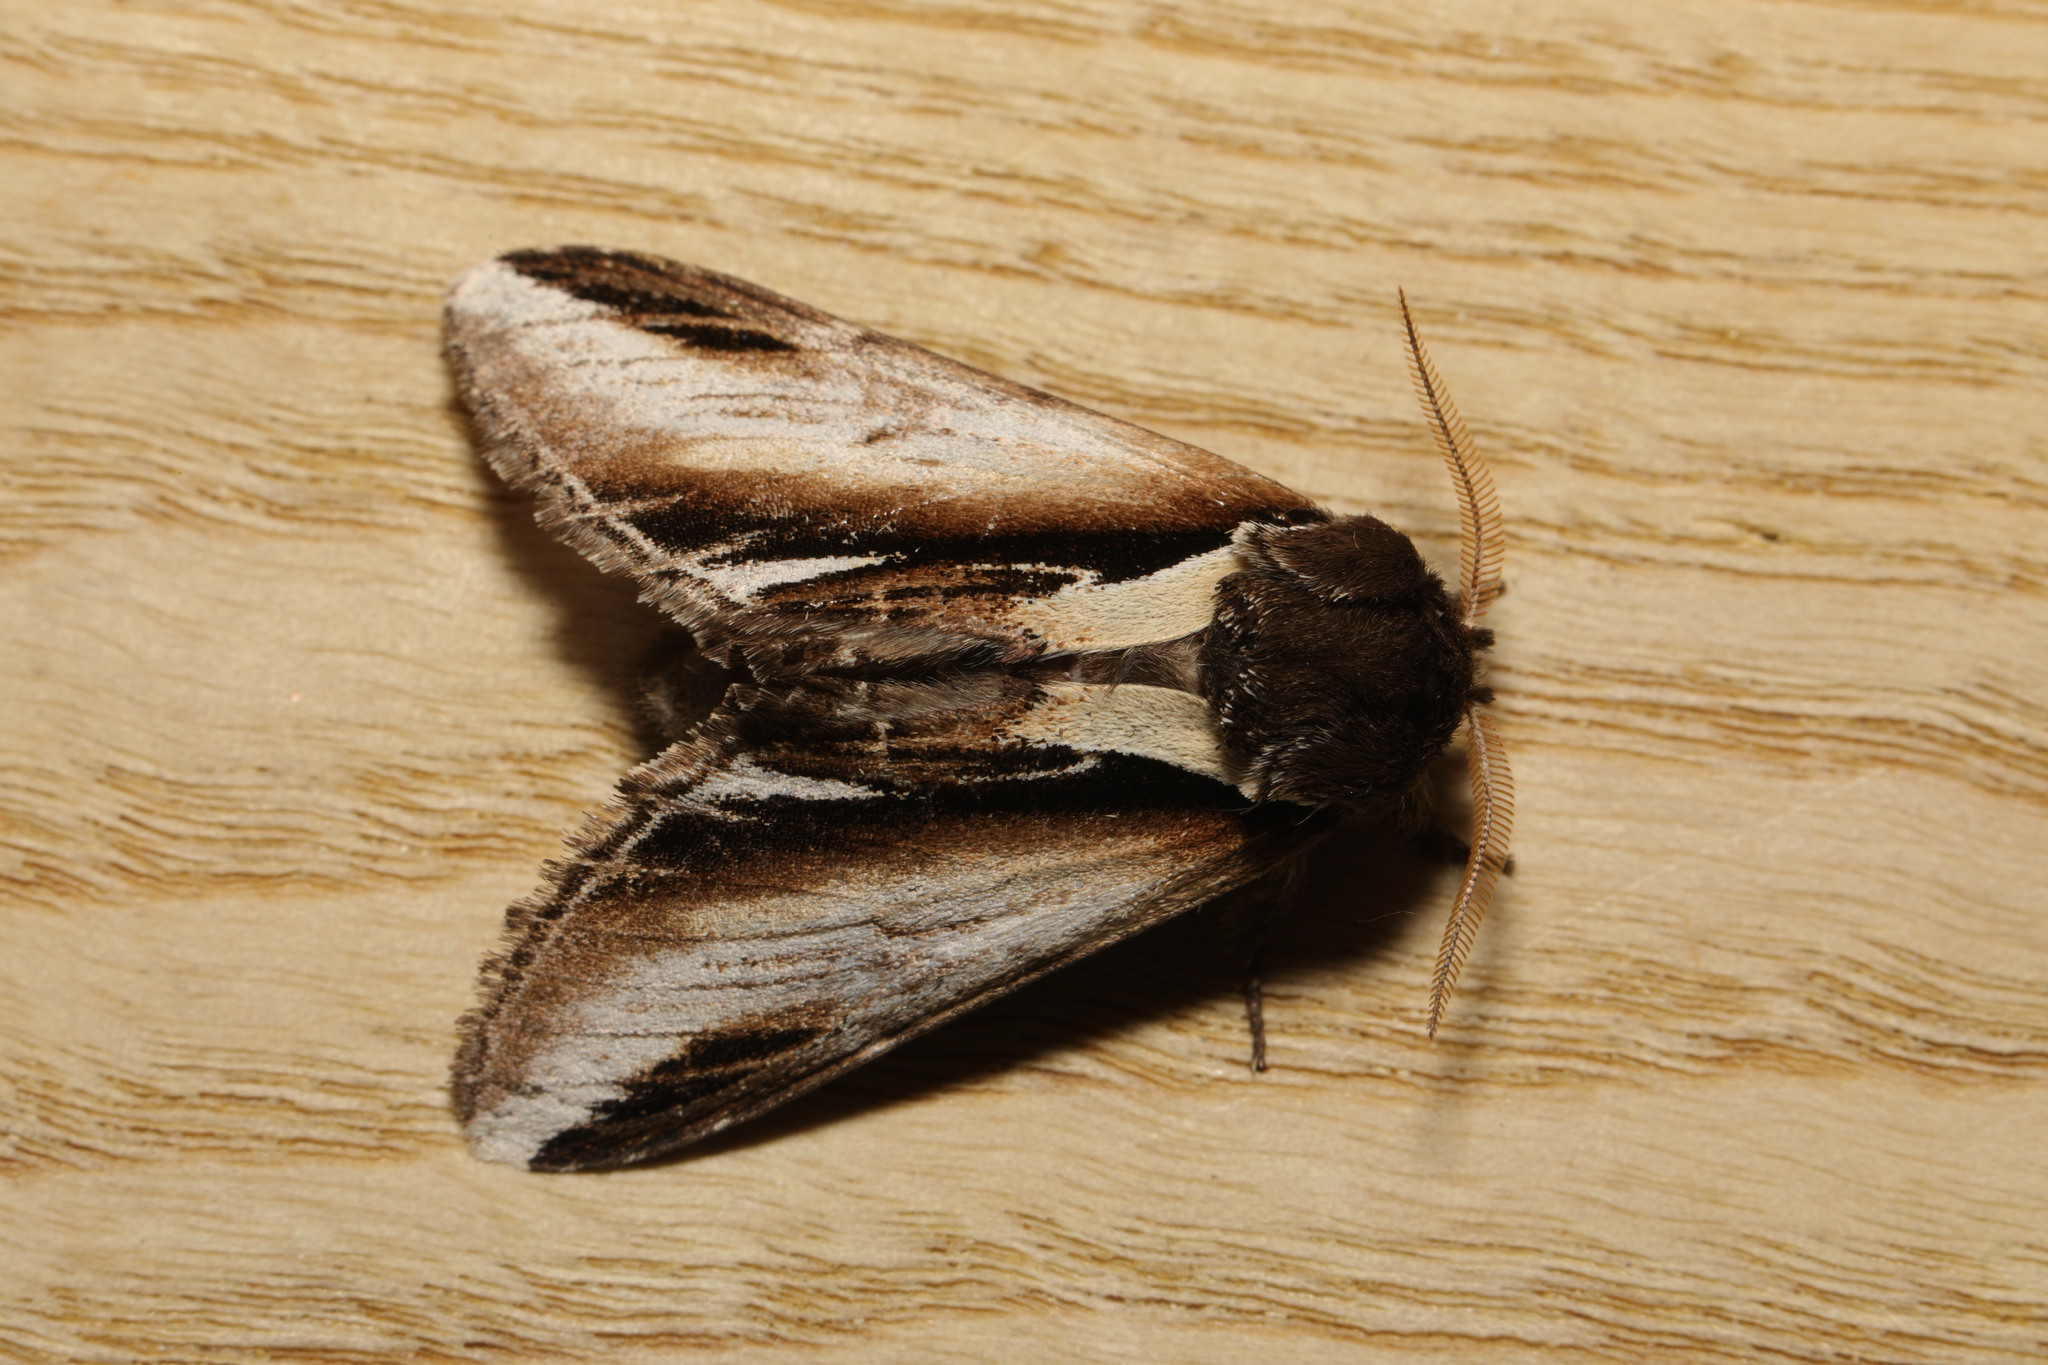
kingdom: Animalia
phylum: Arthropoda
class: Insecta
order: Lepidoptera
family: Notodontidae
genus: Pheosia
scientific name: Pheosia gnoma
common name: Lesser swallow prominent
